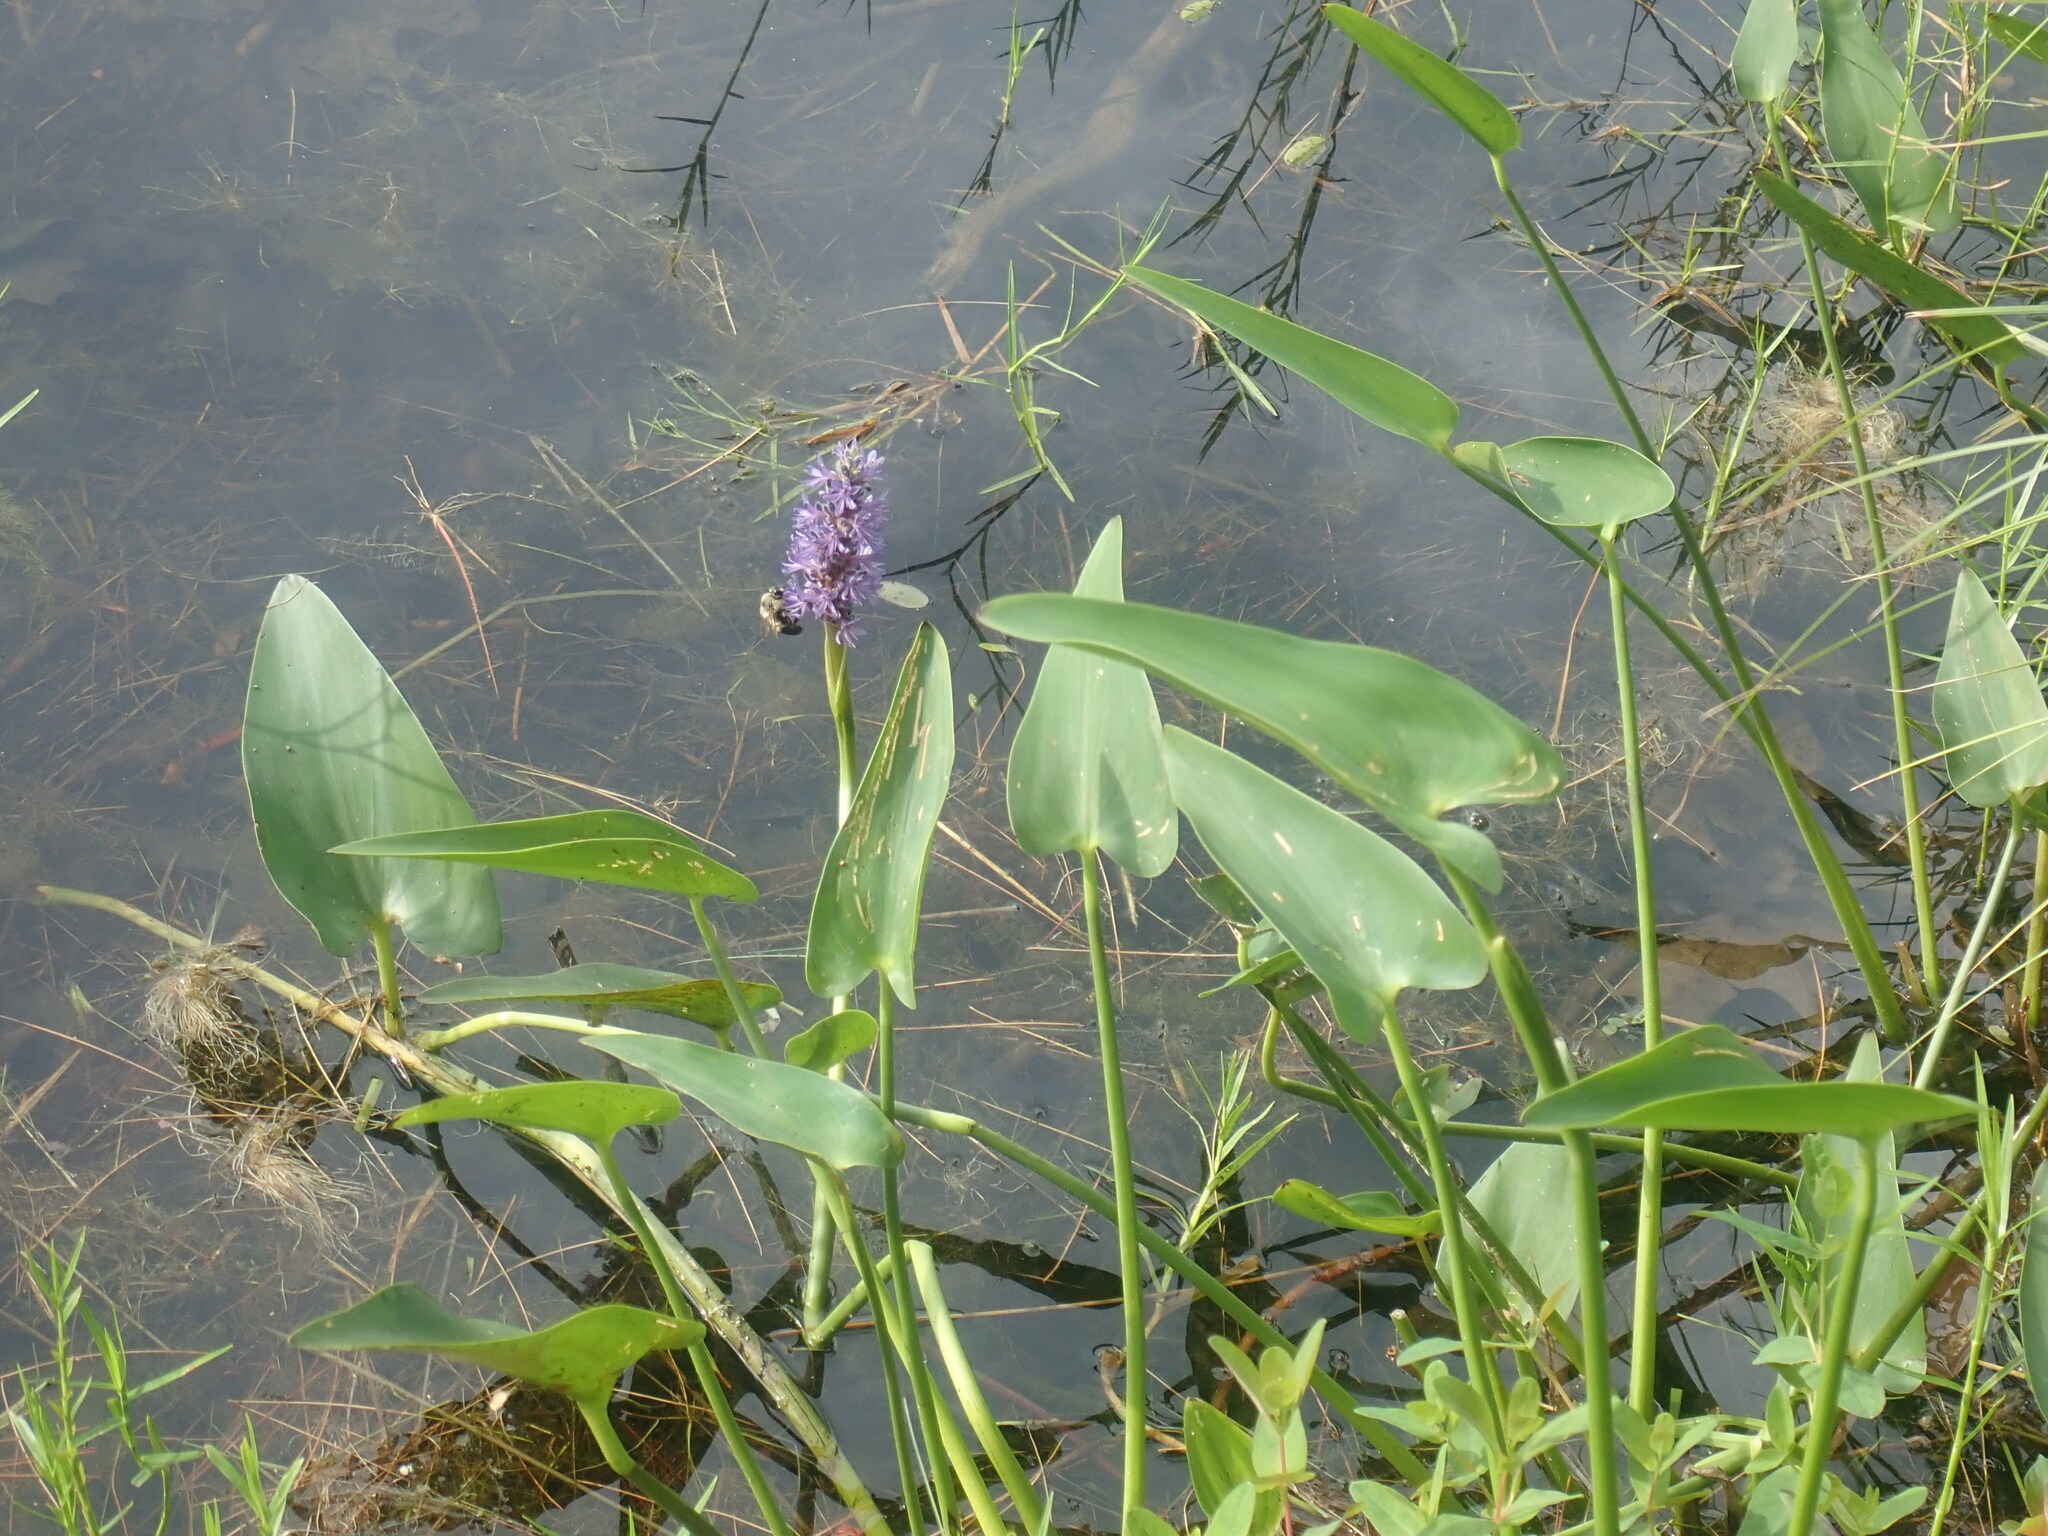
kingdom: Plantae
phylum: Tracheophyta
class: Liliopsida
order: Commelinales
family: Pontederiaceae
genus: Pontederia
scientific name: Pontederia cordata
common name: Pickerelweed
